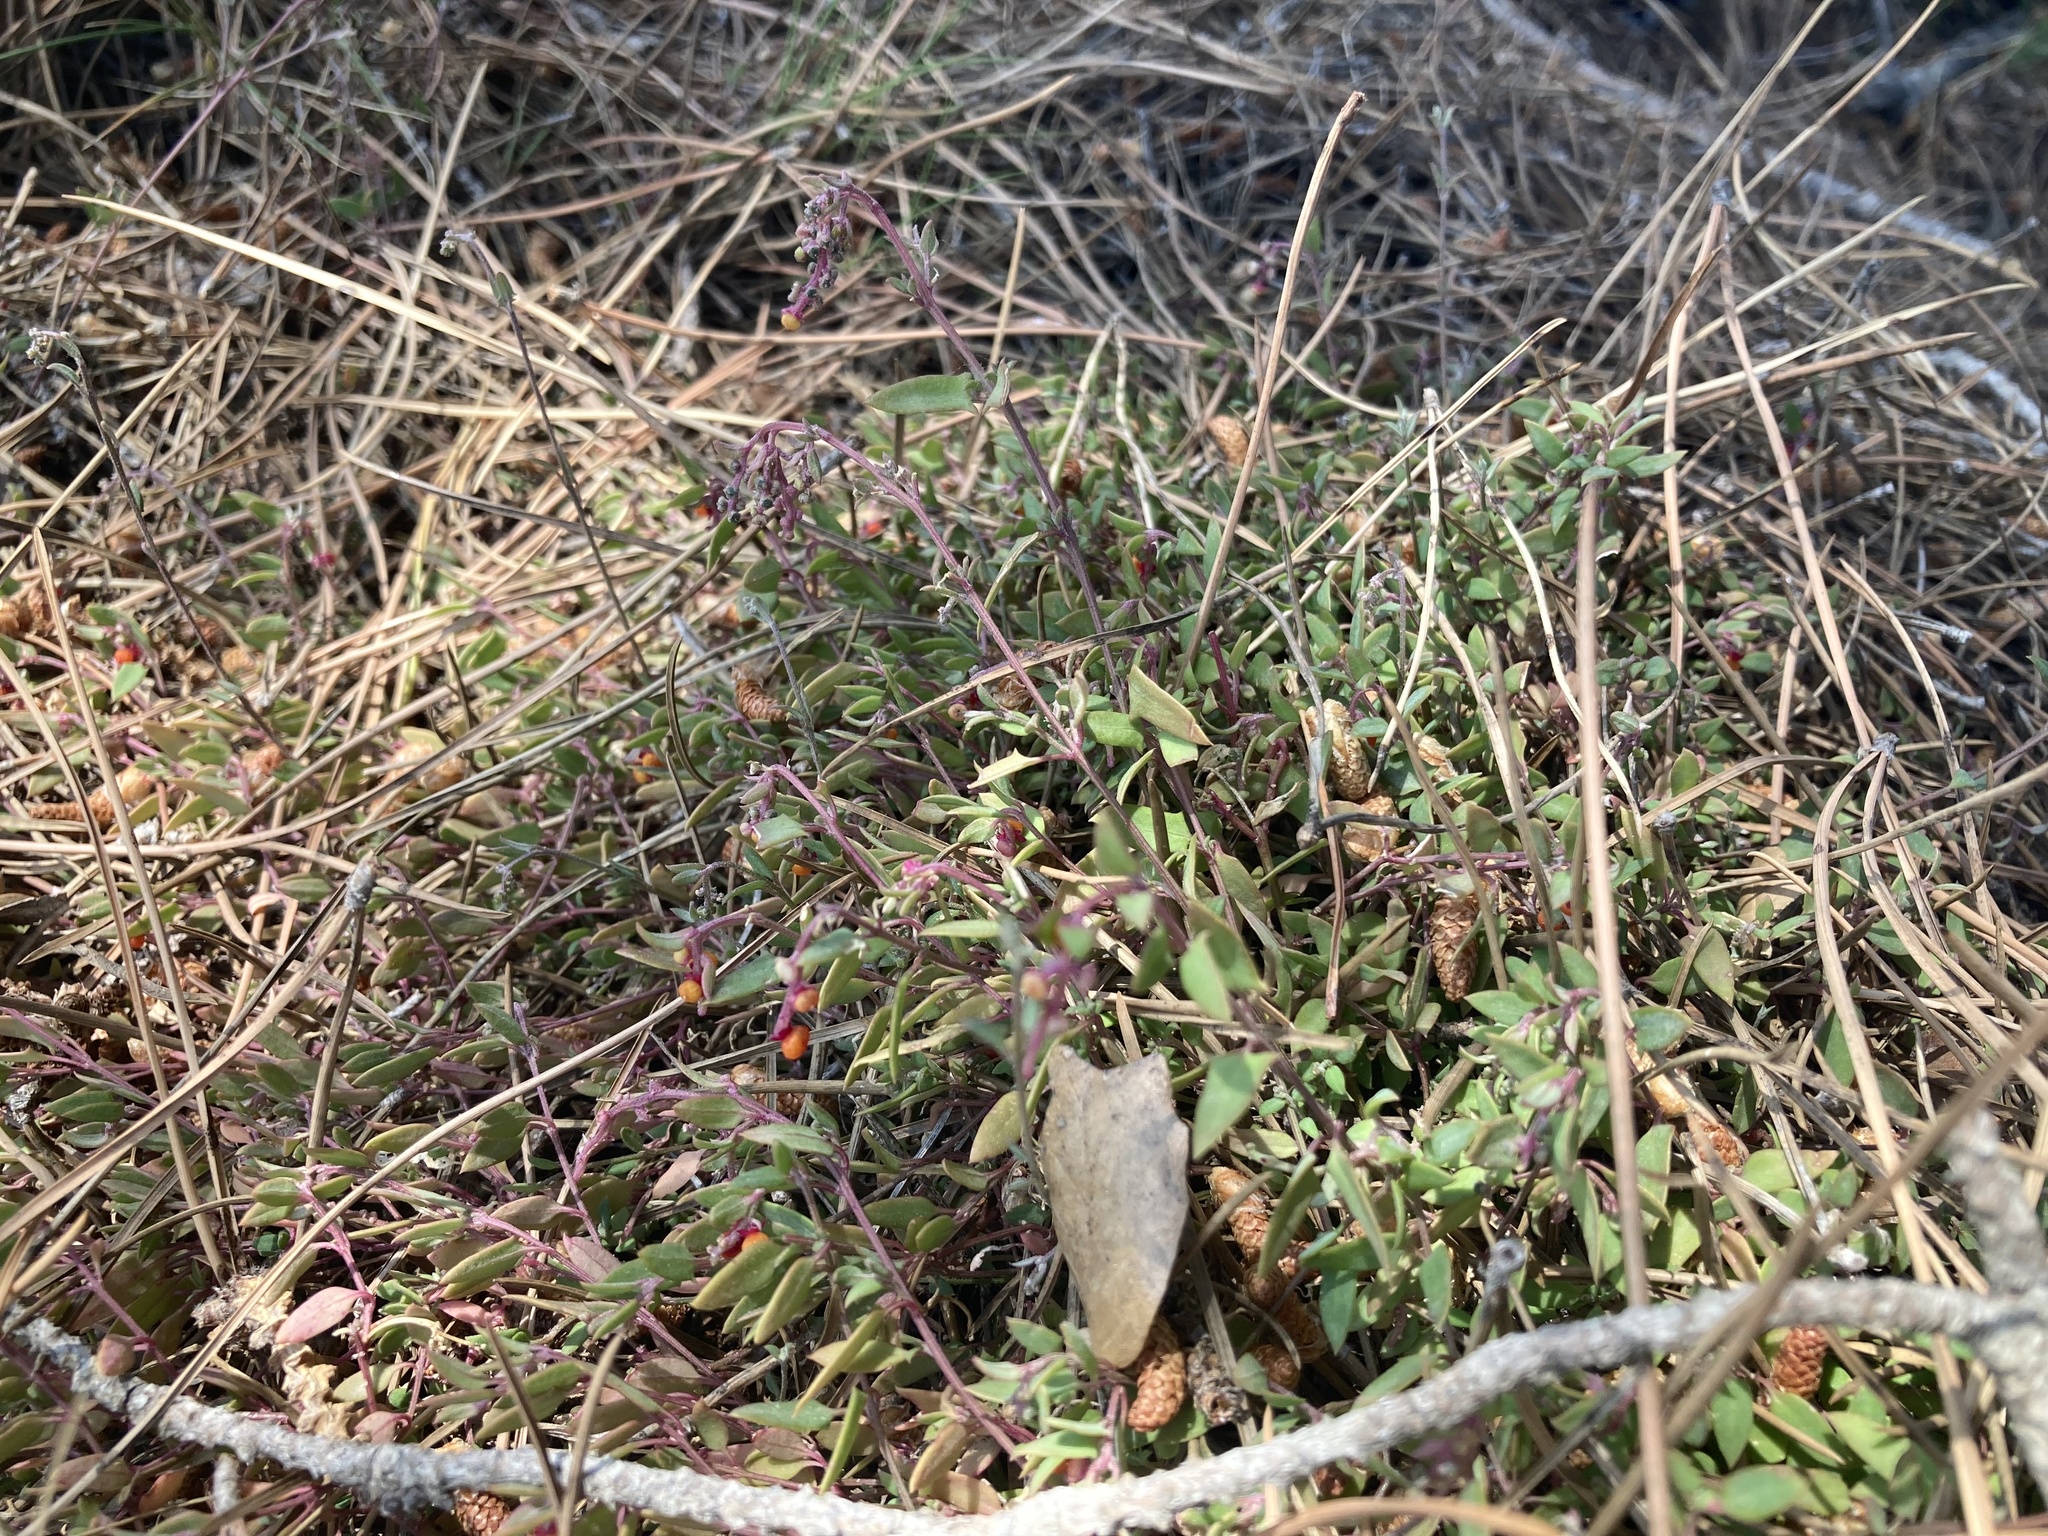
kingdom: Plantae
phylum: Tracheophyta
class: Magnoliopsida
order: Caryophyllales
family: Amaranthaceae
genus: Chenopodium
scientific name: Chenopodium nutans
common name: Climbing-saltbush
